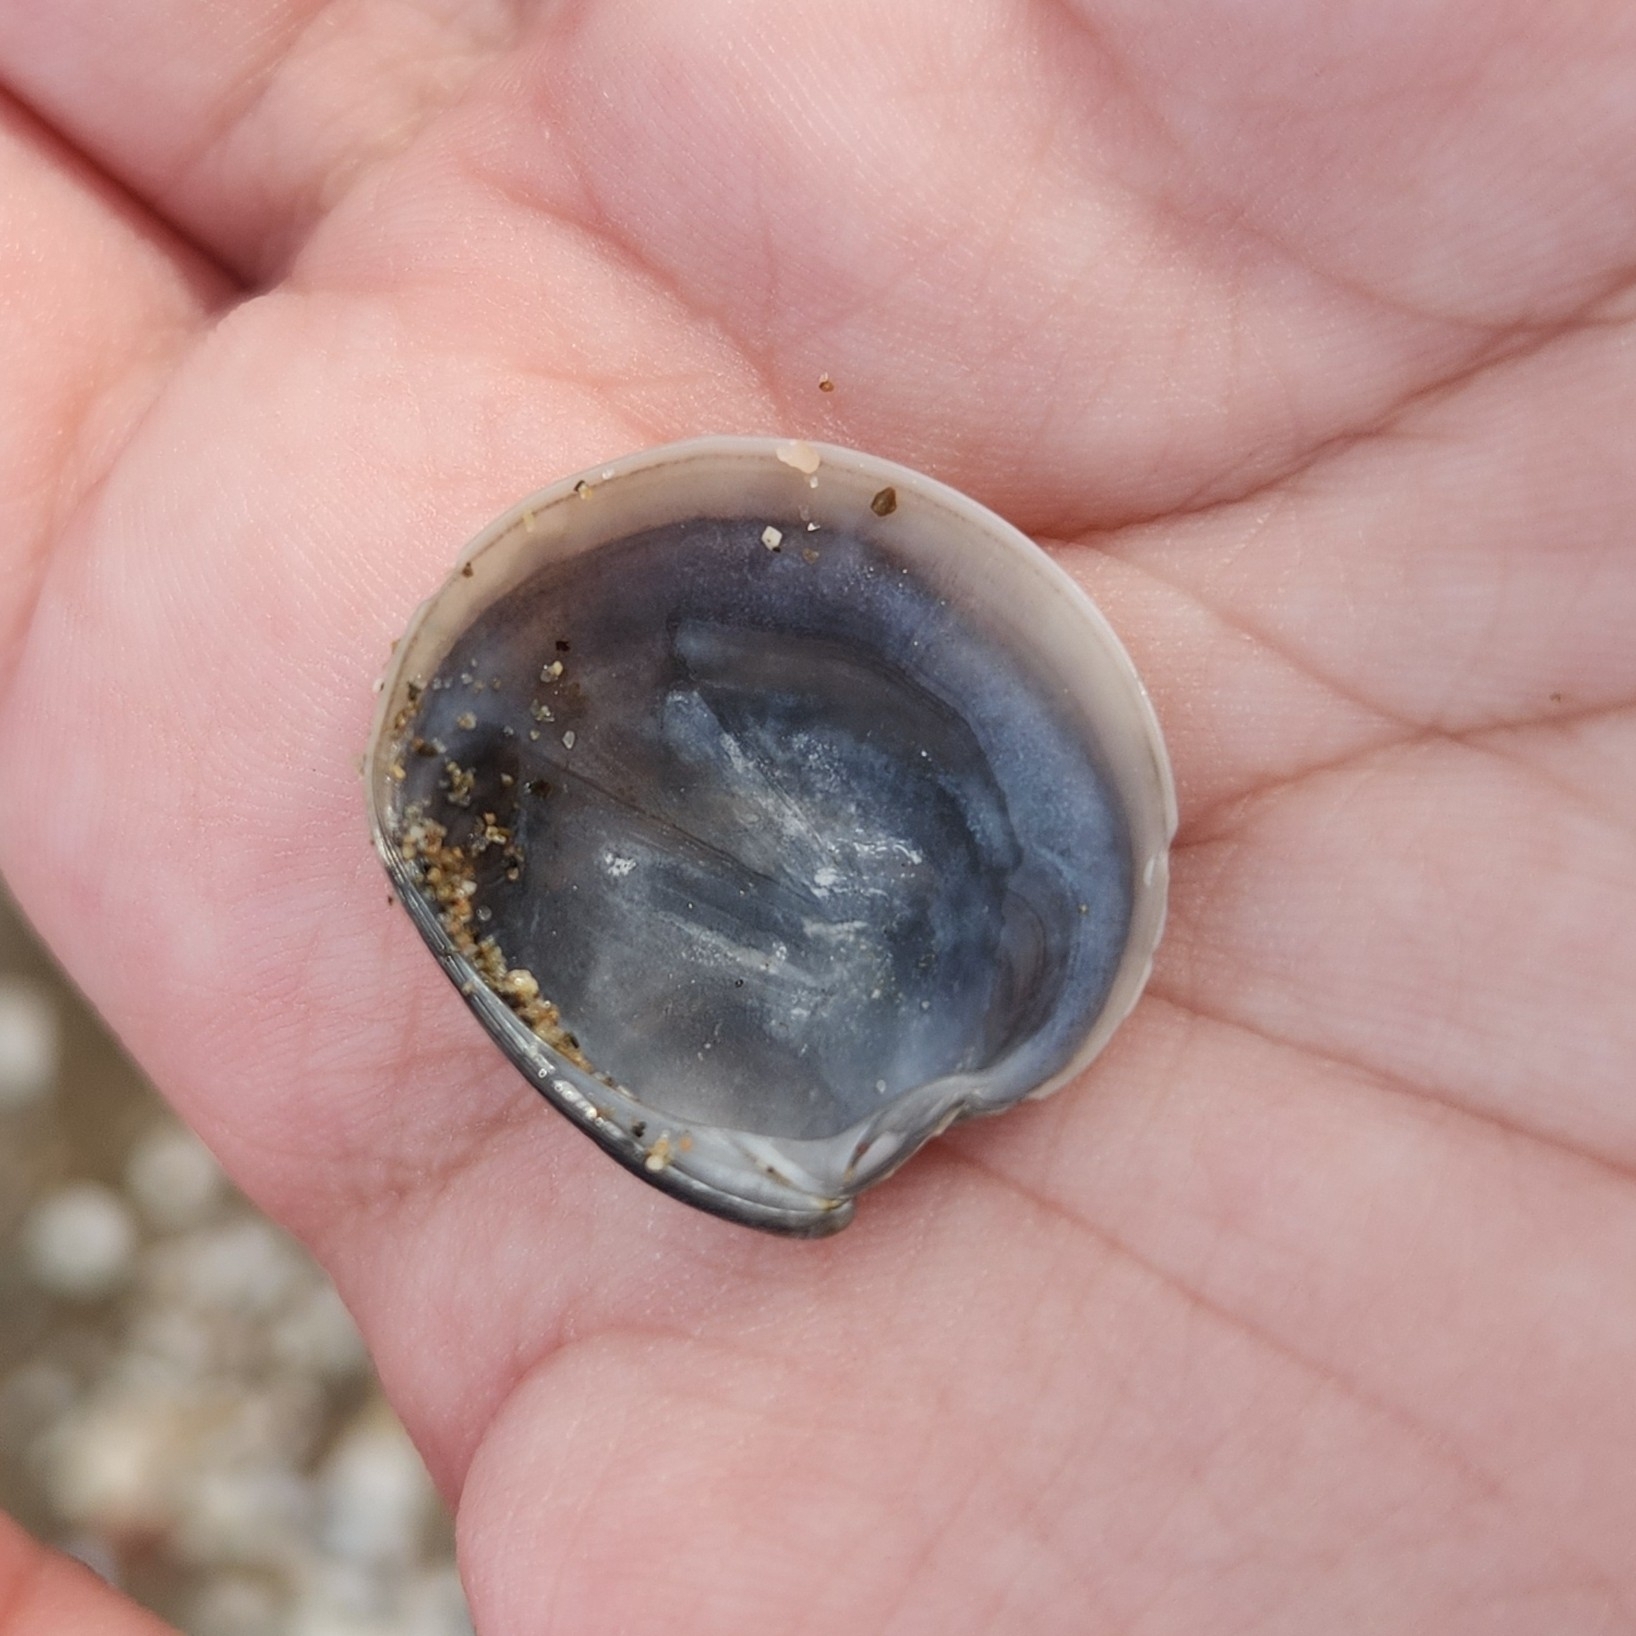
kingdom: Animalia
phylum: Mollusca
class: Bivalvia
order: Venerida
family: Veneridae
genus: Dosinia
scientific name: Dosinia lupinus
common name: Smooth artemis
